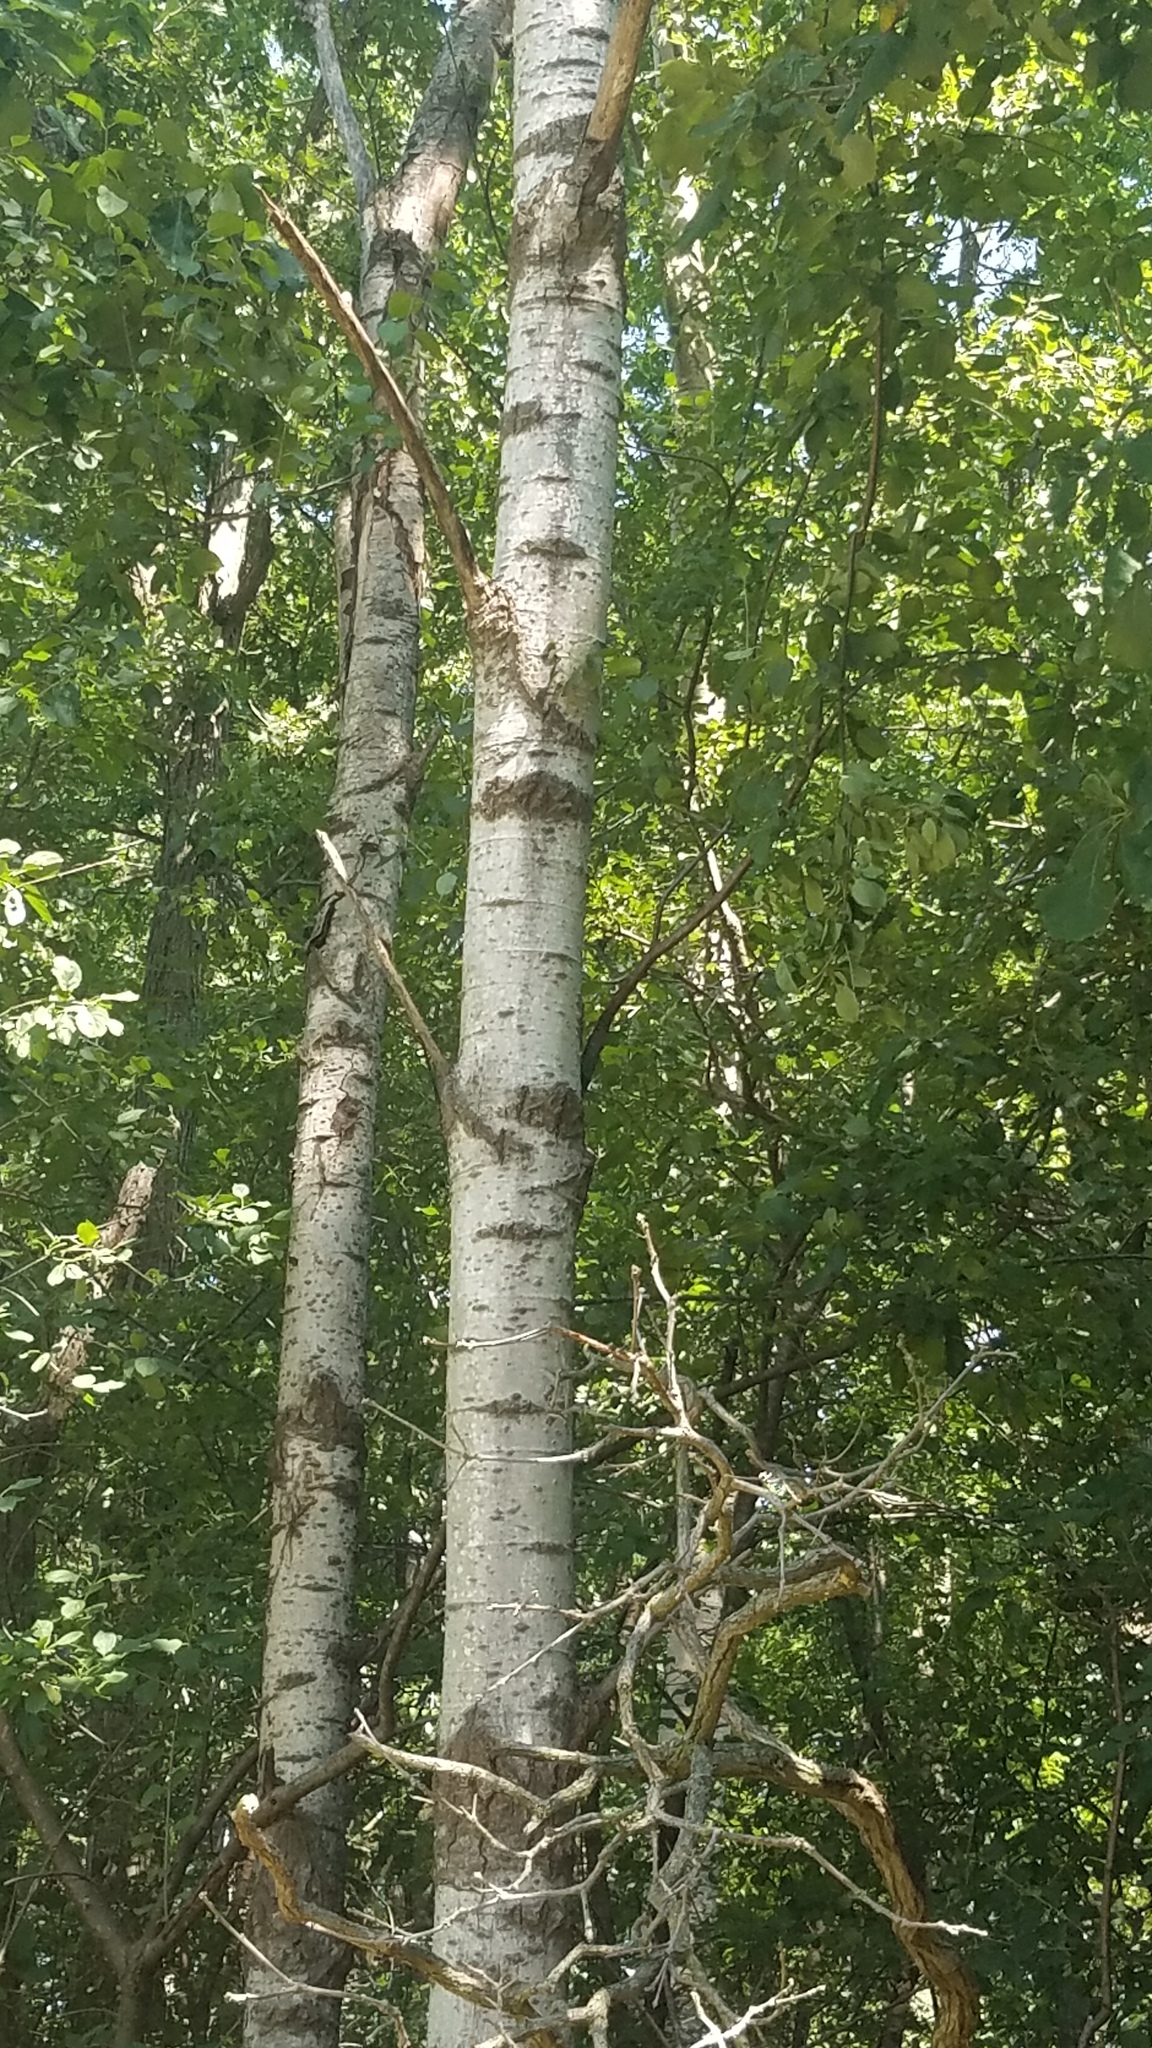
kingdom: Plantae
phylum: Tracheophyta
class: Magnoliopsida
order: Malpighiales
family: Salicaceae
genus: Populus
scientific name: Populus tremuloides
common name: Quaking aspen
